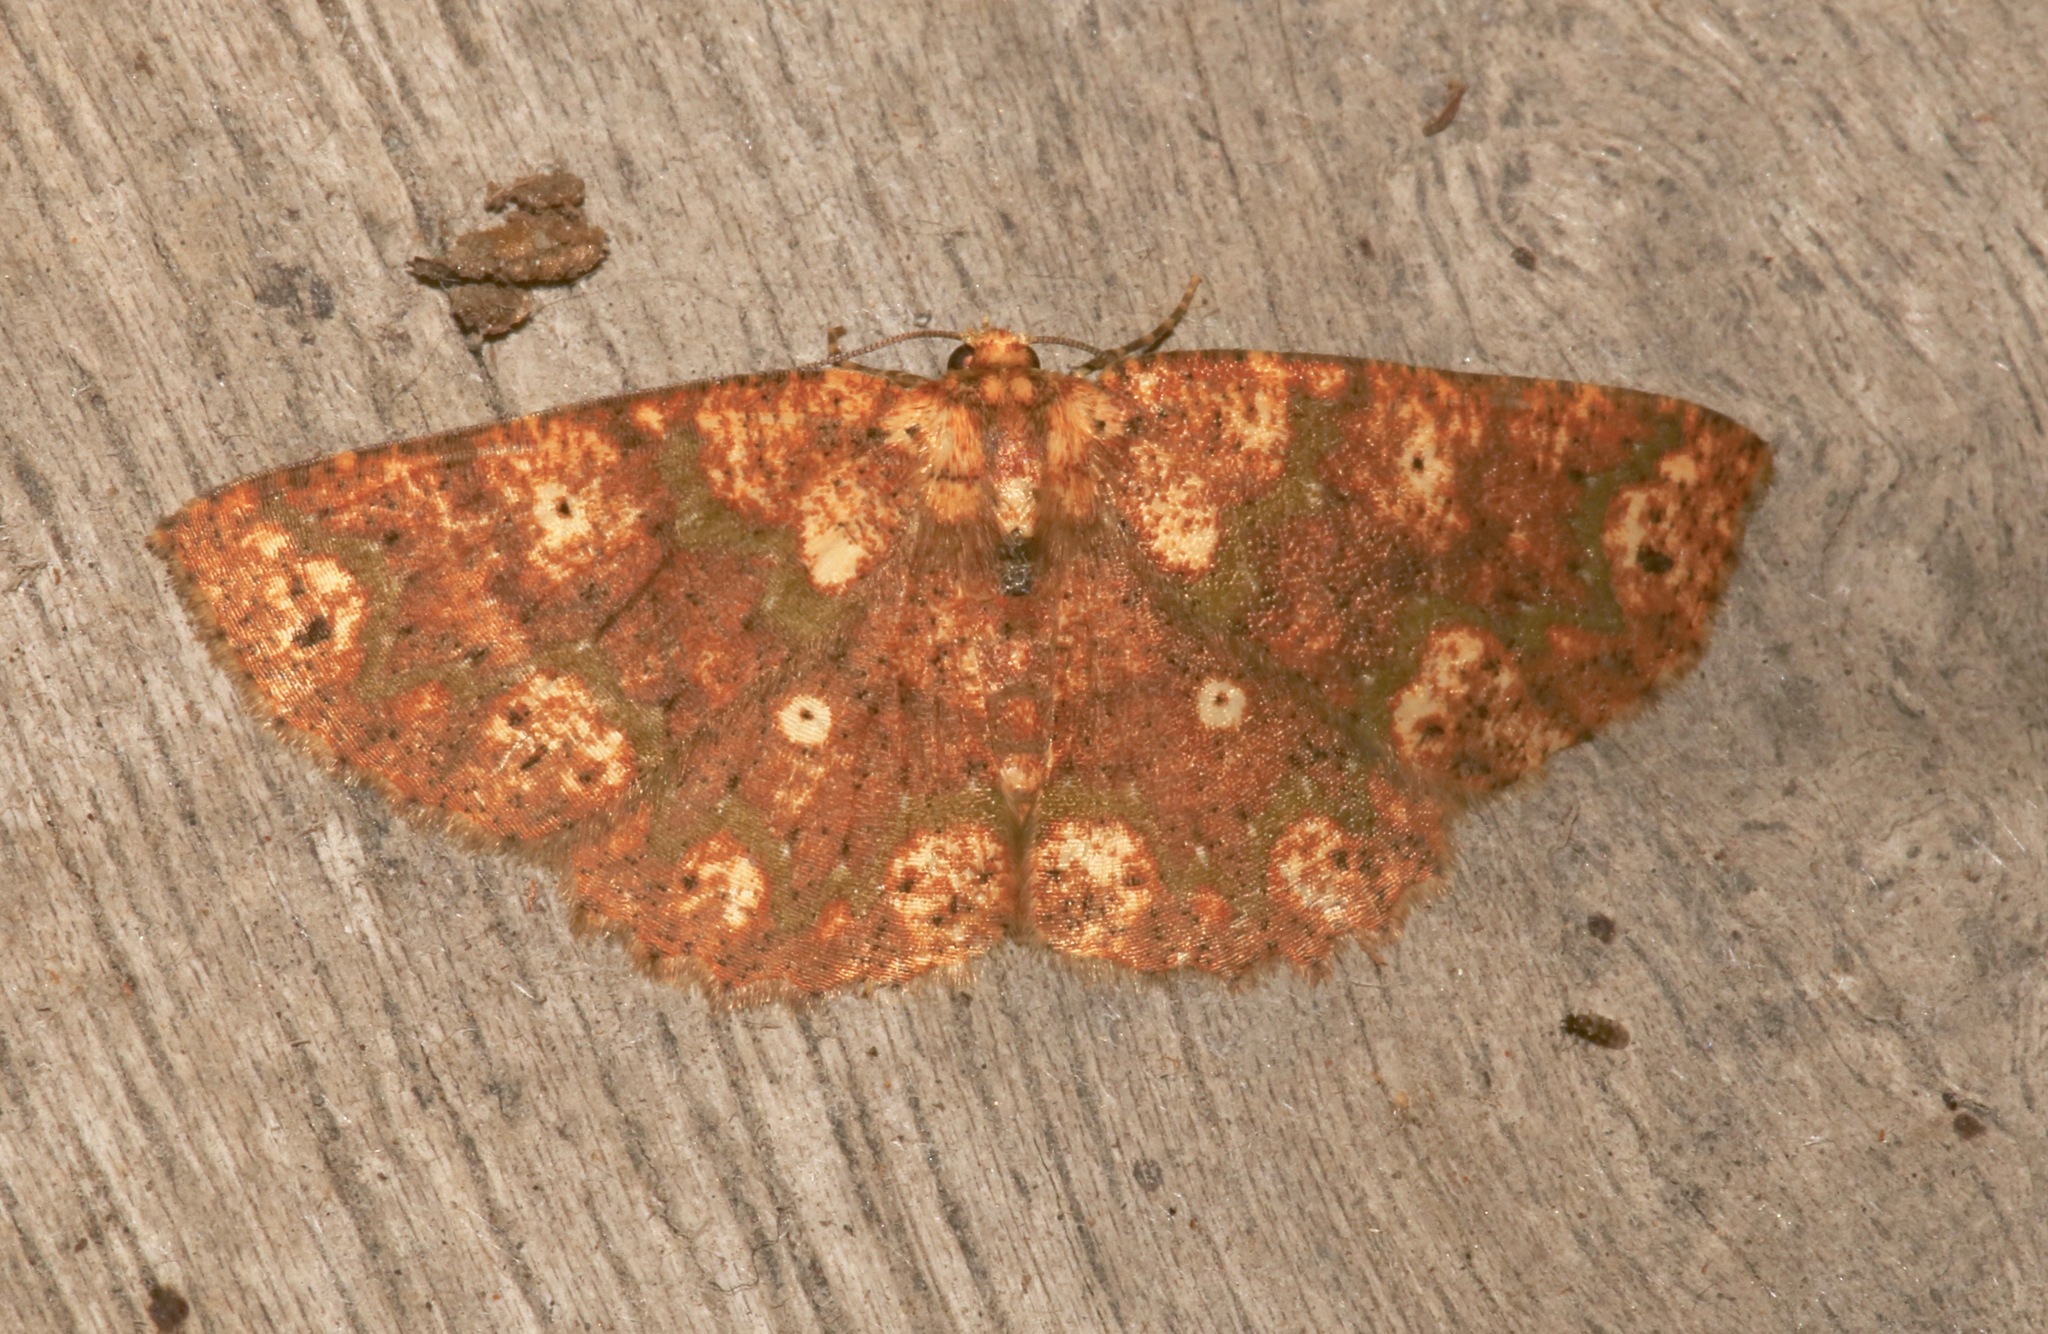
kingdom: Animalia
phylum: Arthropoda
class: Insecta
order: Lepidoptera
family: Geometridae
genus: Isochromodes
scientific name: Isochromodes polvoreata
